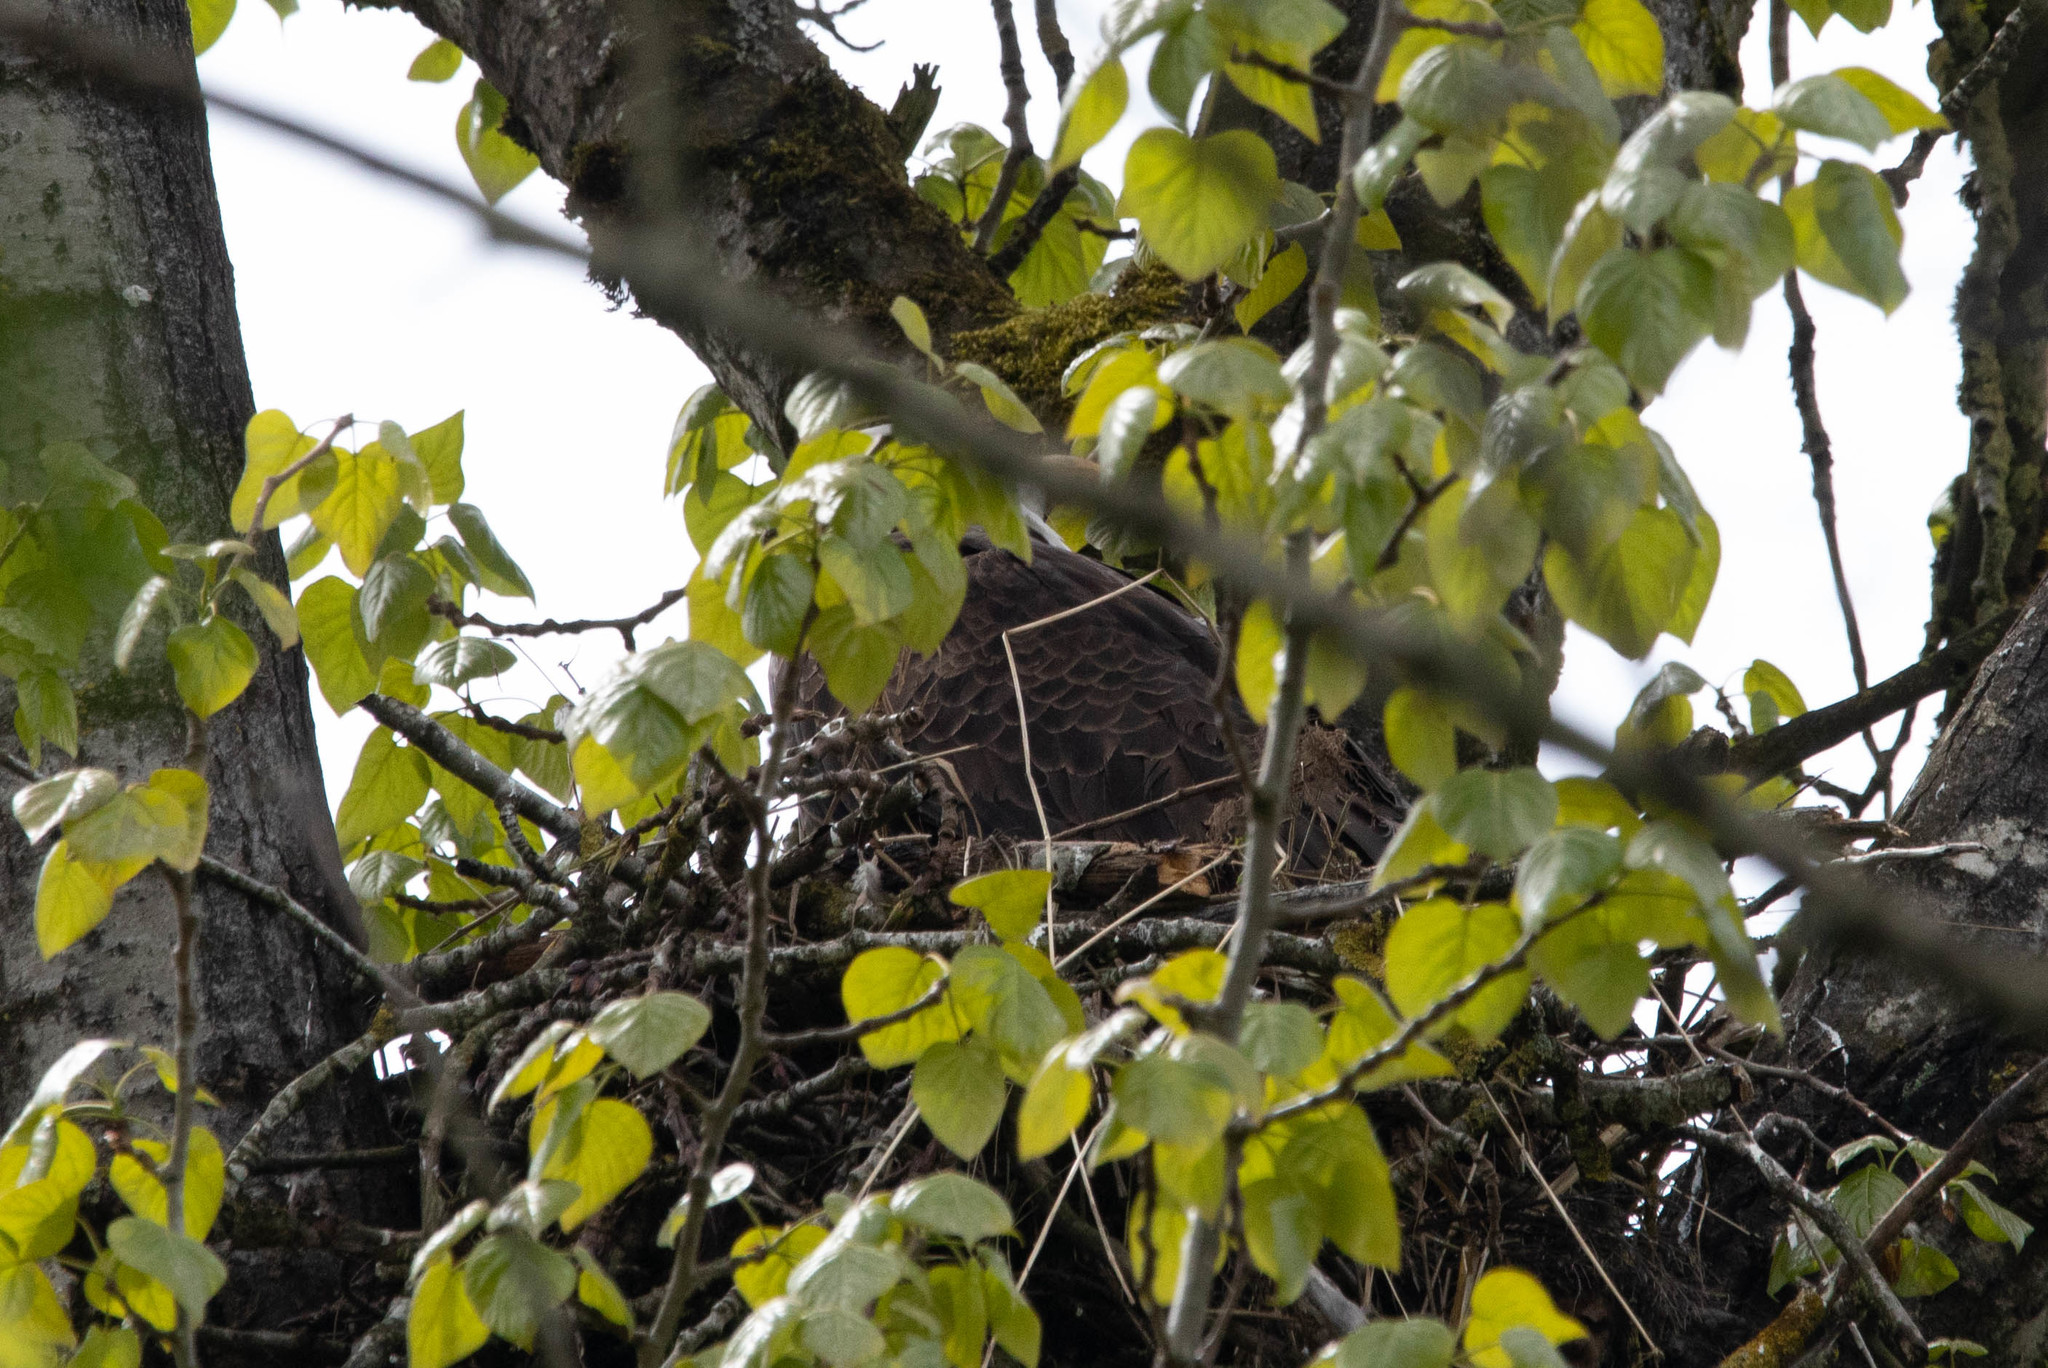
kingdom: Animalia
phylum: Chordata
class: Aves
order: Accipitriformes
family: Accipitridae
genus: Haliaeetus
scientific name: Haliaeetus leucocephalus
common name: Bald eagle
